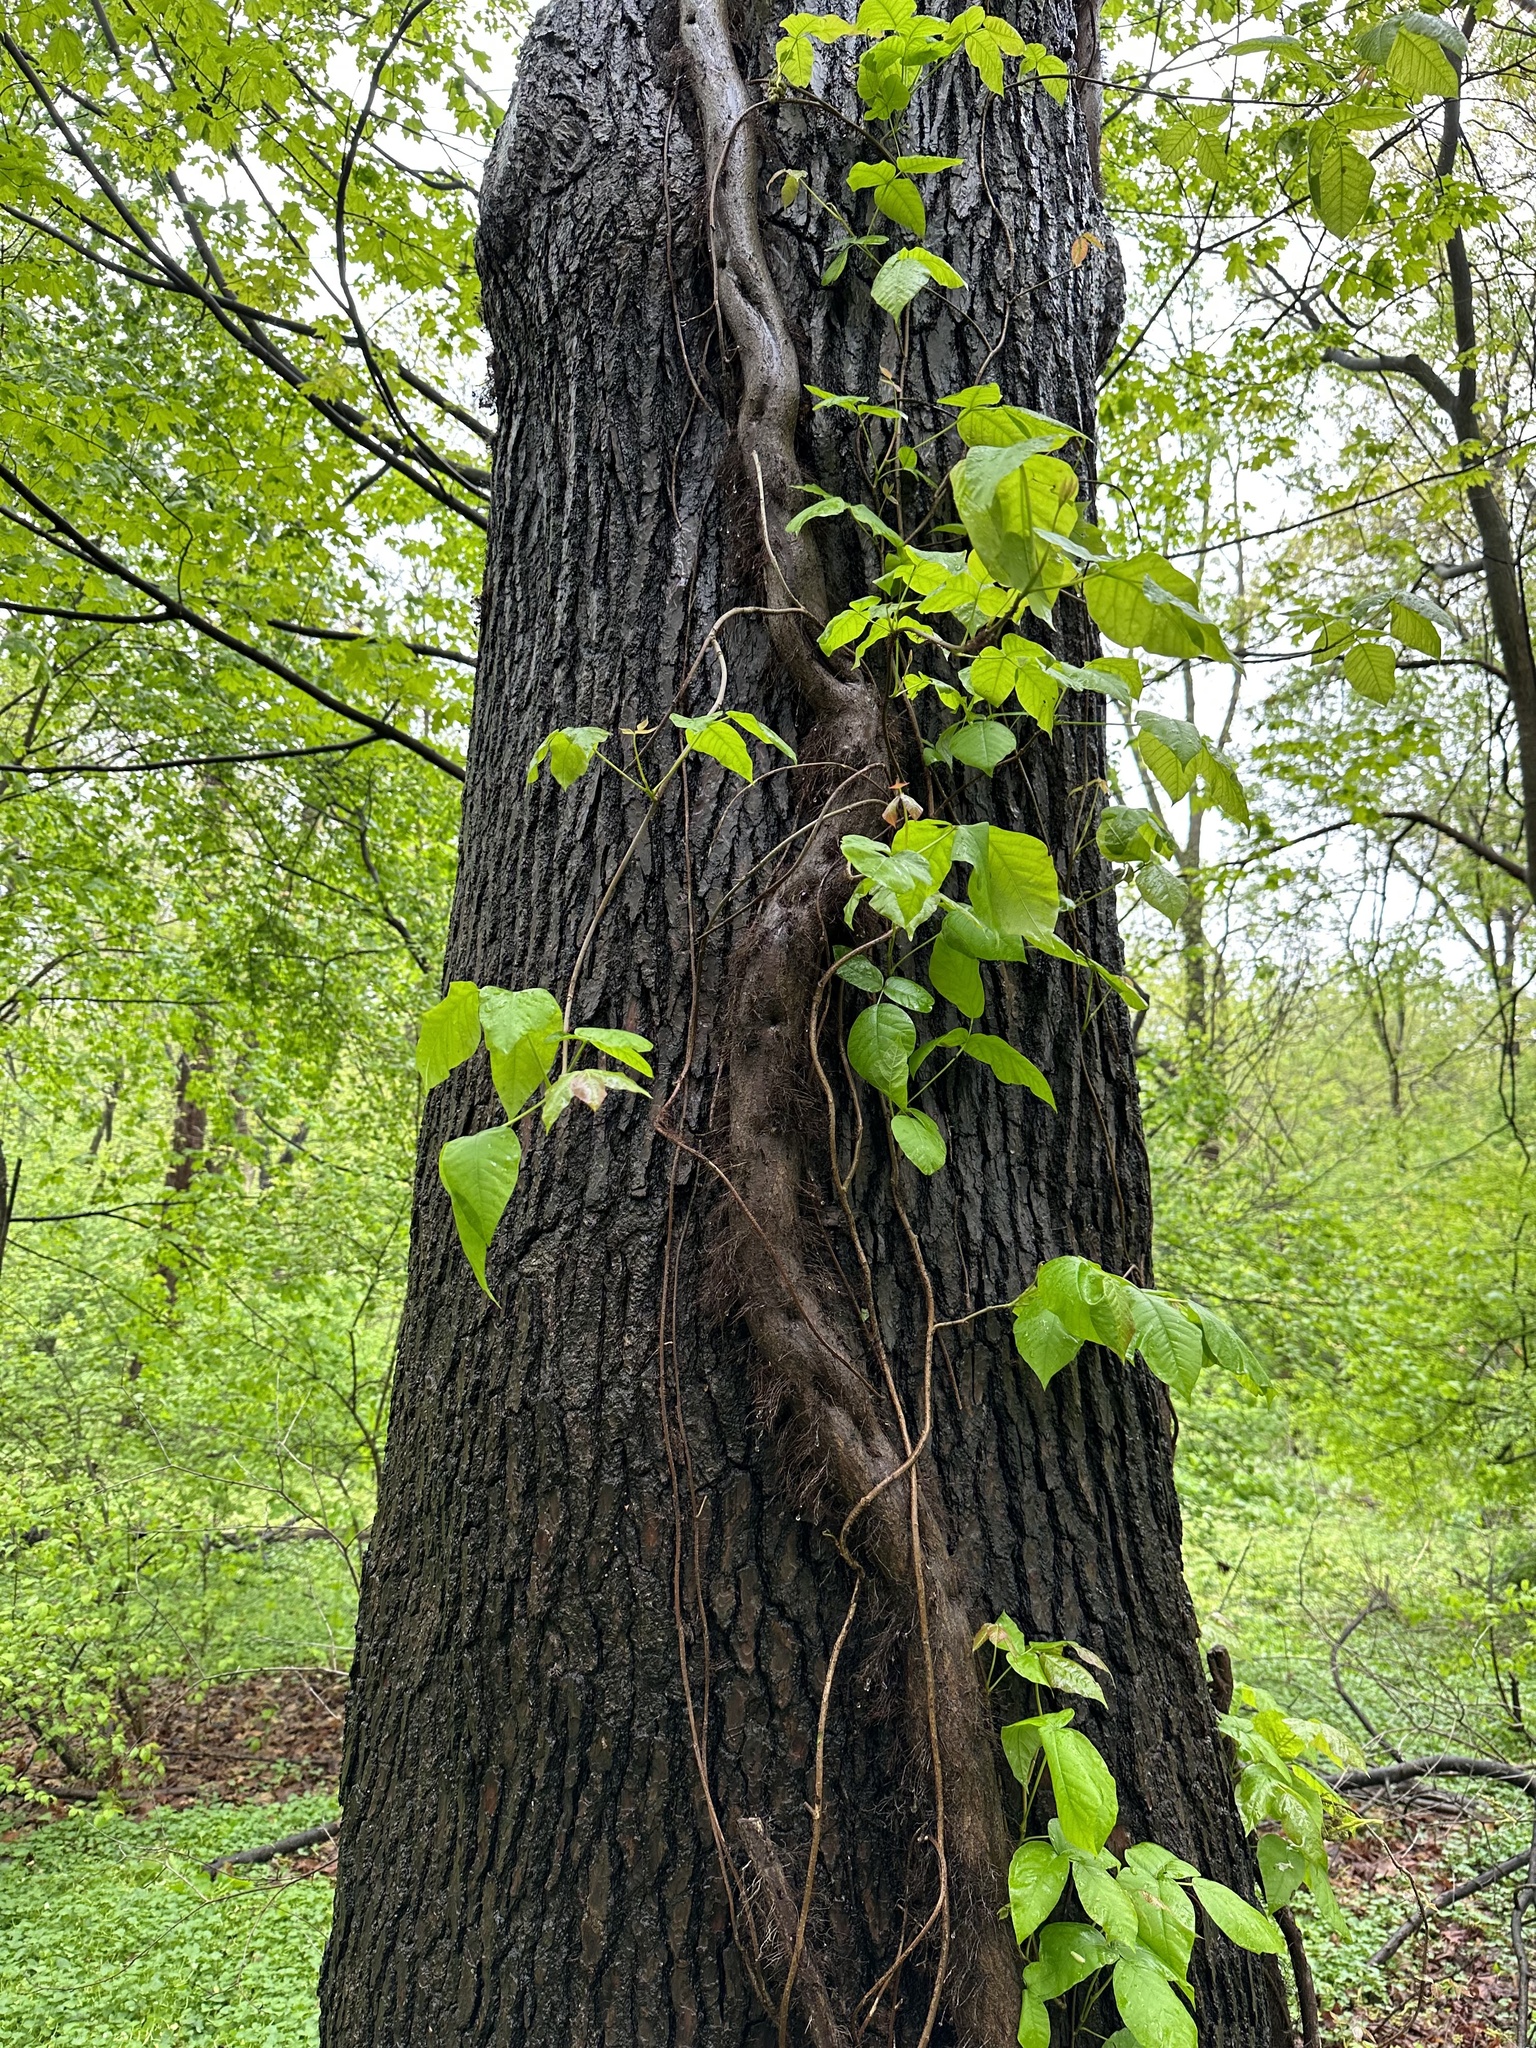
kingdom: Plantae
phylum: Tracheophyta
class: Magnoliopsida
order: Sapindales
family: Anacardiaceae
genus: Toxicodendron
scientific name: Toxicodendron radicans
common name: Poison ivy
